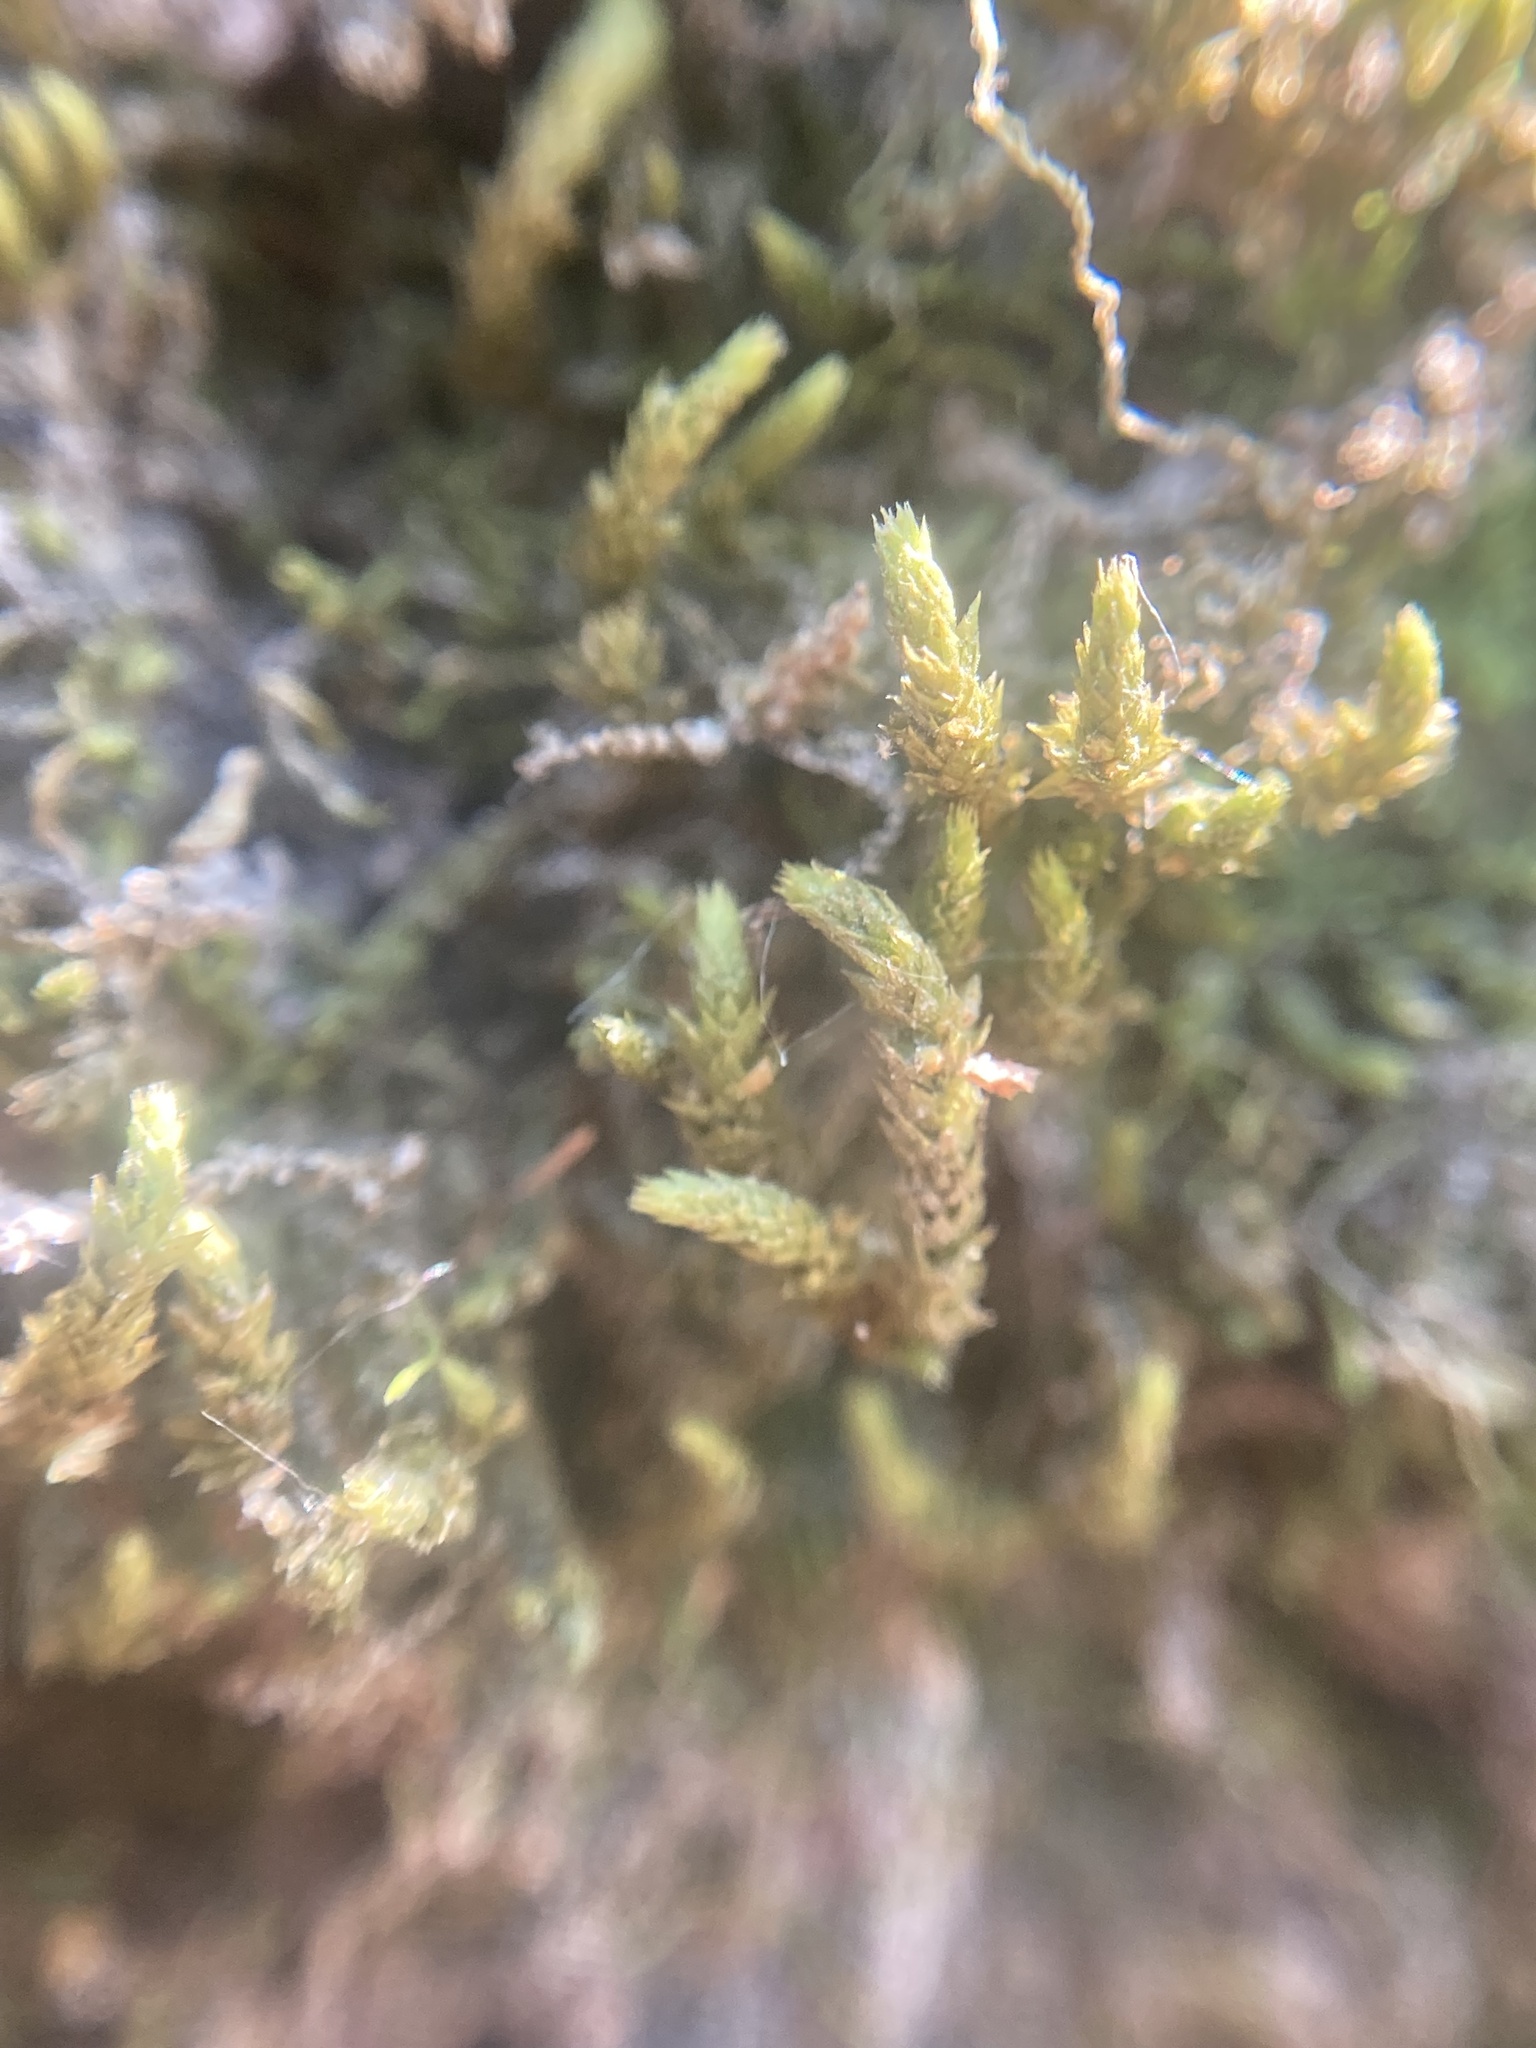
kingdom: Plantae
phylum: Bryophyta
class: Bryopsida
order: Hedwigiales
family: Hedwigiaceae
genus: Hedwigia
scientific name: Hedwigia ciliata
